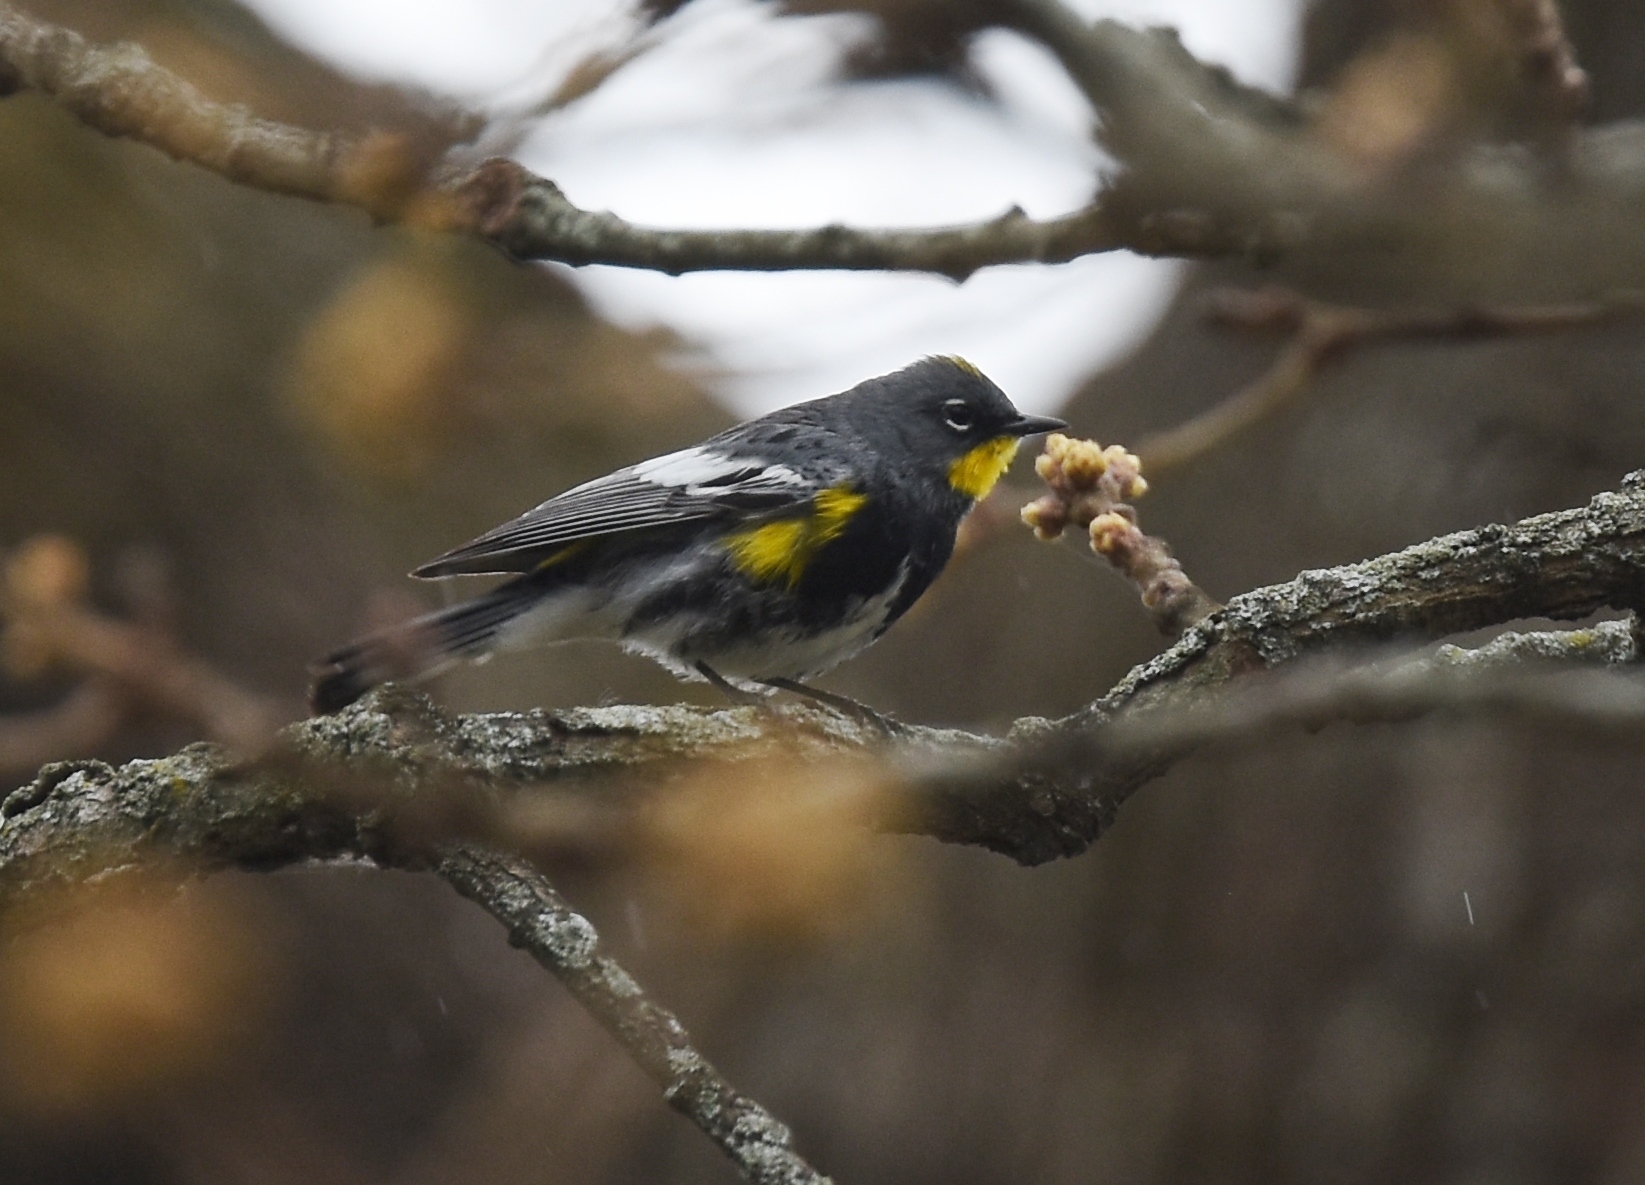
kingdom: Animalia
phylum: Chordata
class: Aves
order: Passeriformes
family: Parulidae
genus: Setophaga
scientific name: Setophaga auduboni
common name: Audubon's warbler
